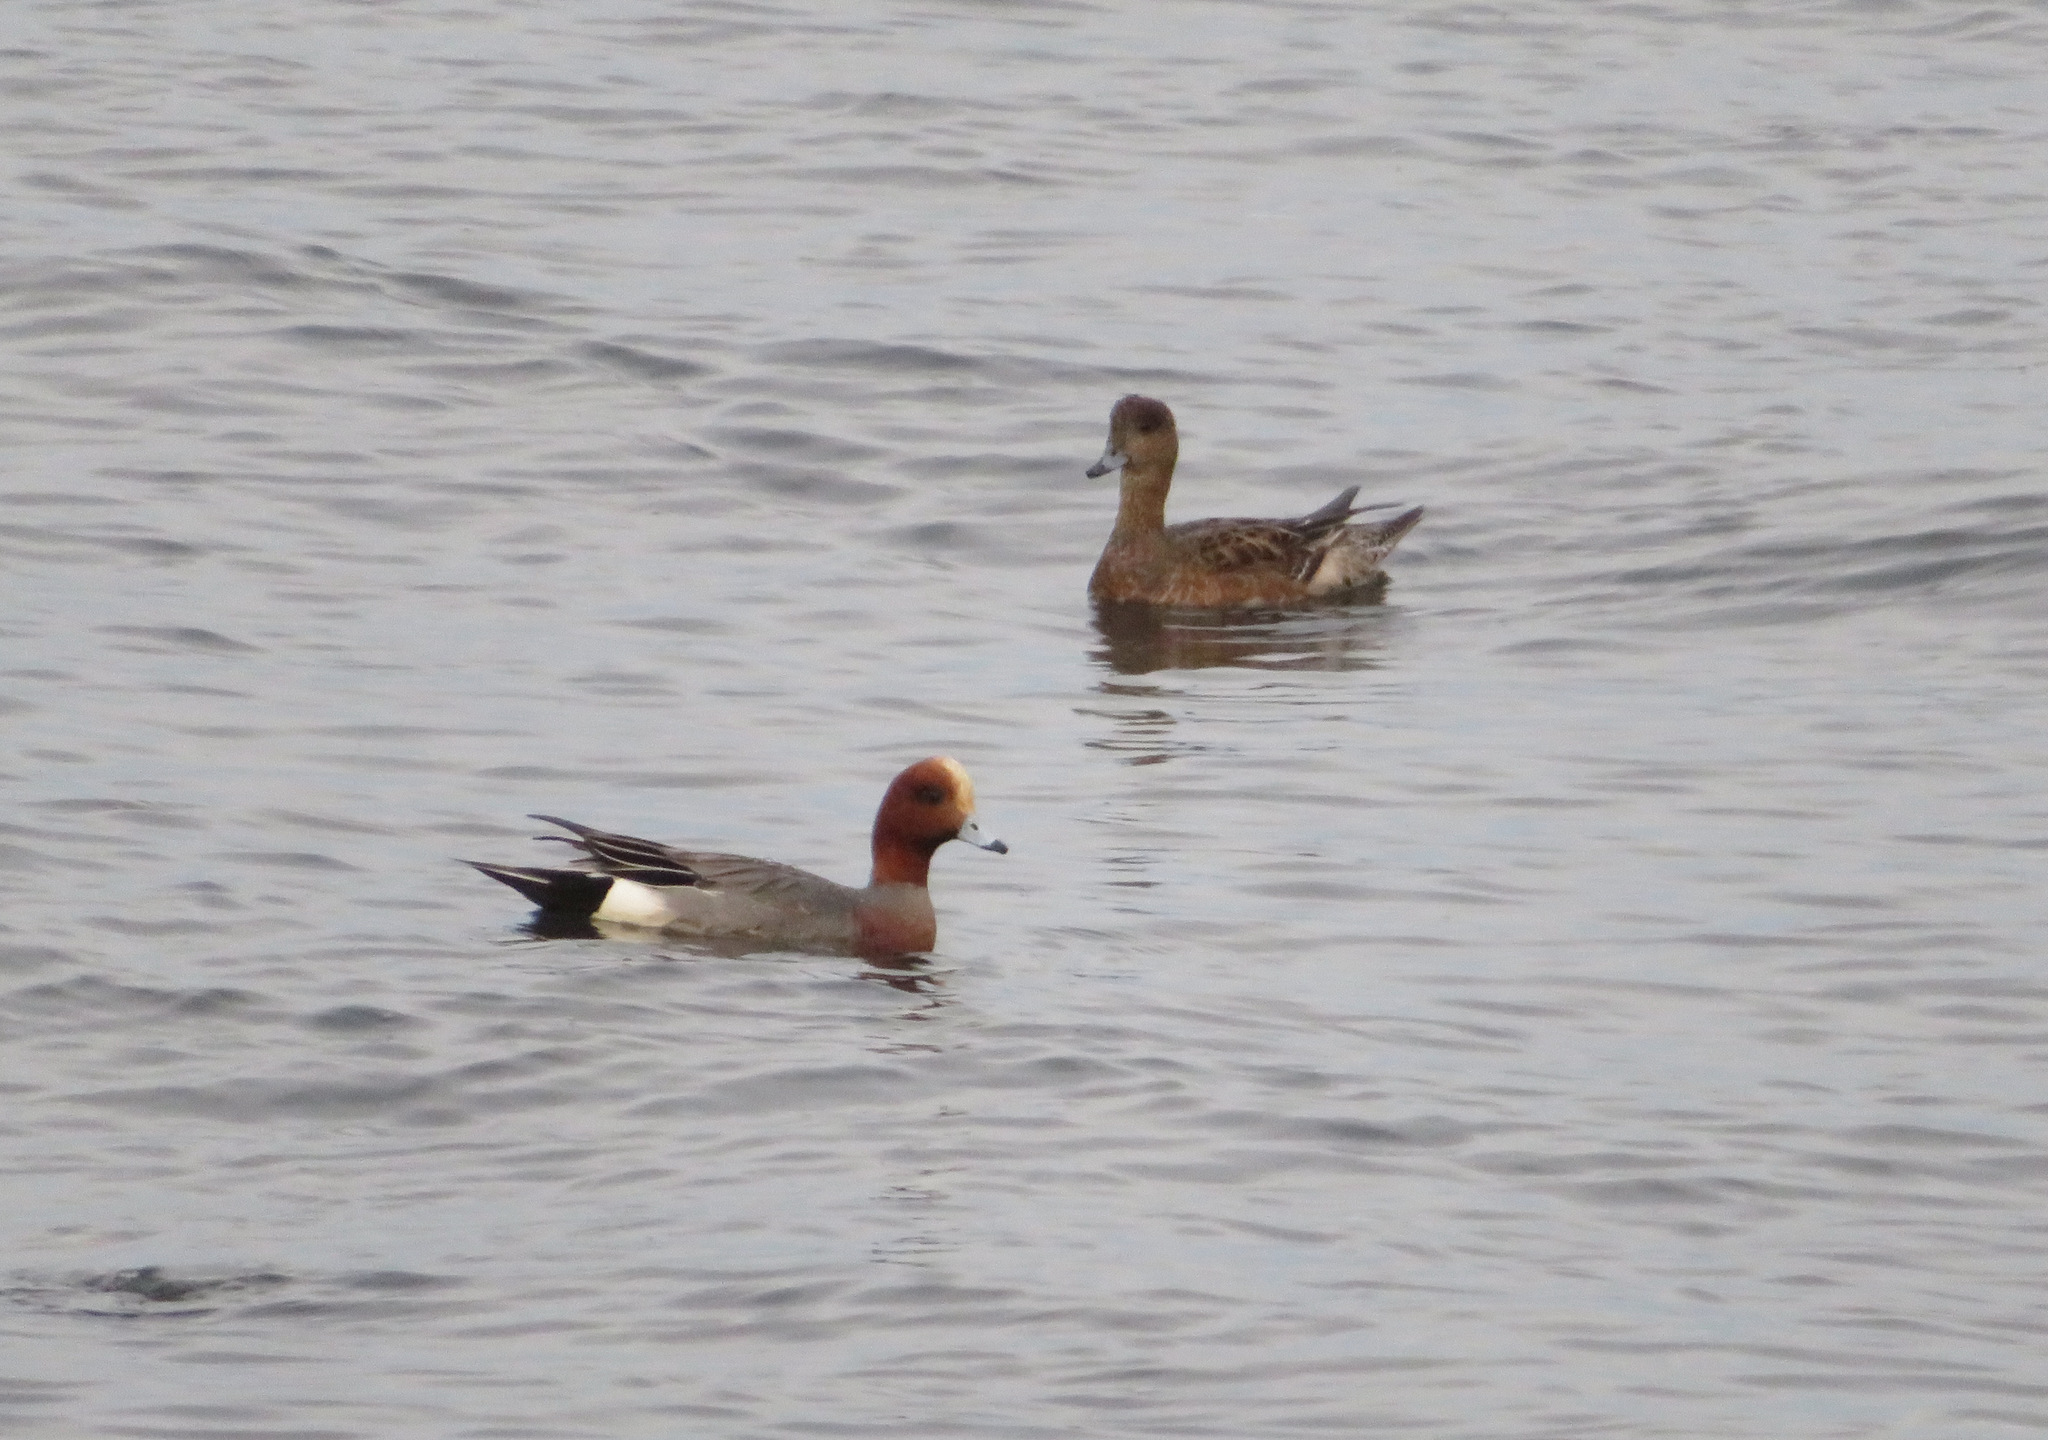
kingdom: Animalia
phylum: Chordata
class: Aves
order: Anseriformes
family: Anatidae
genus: Mareca
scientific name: Mareca penelope
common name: Eurasian wigeon
